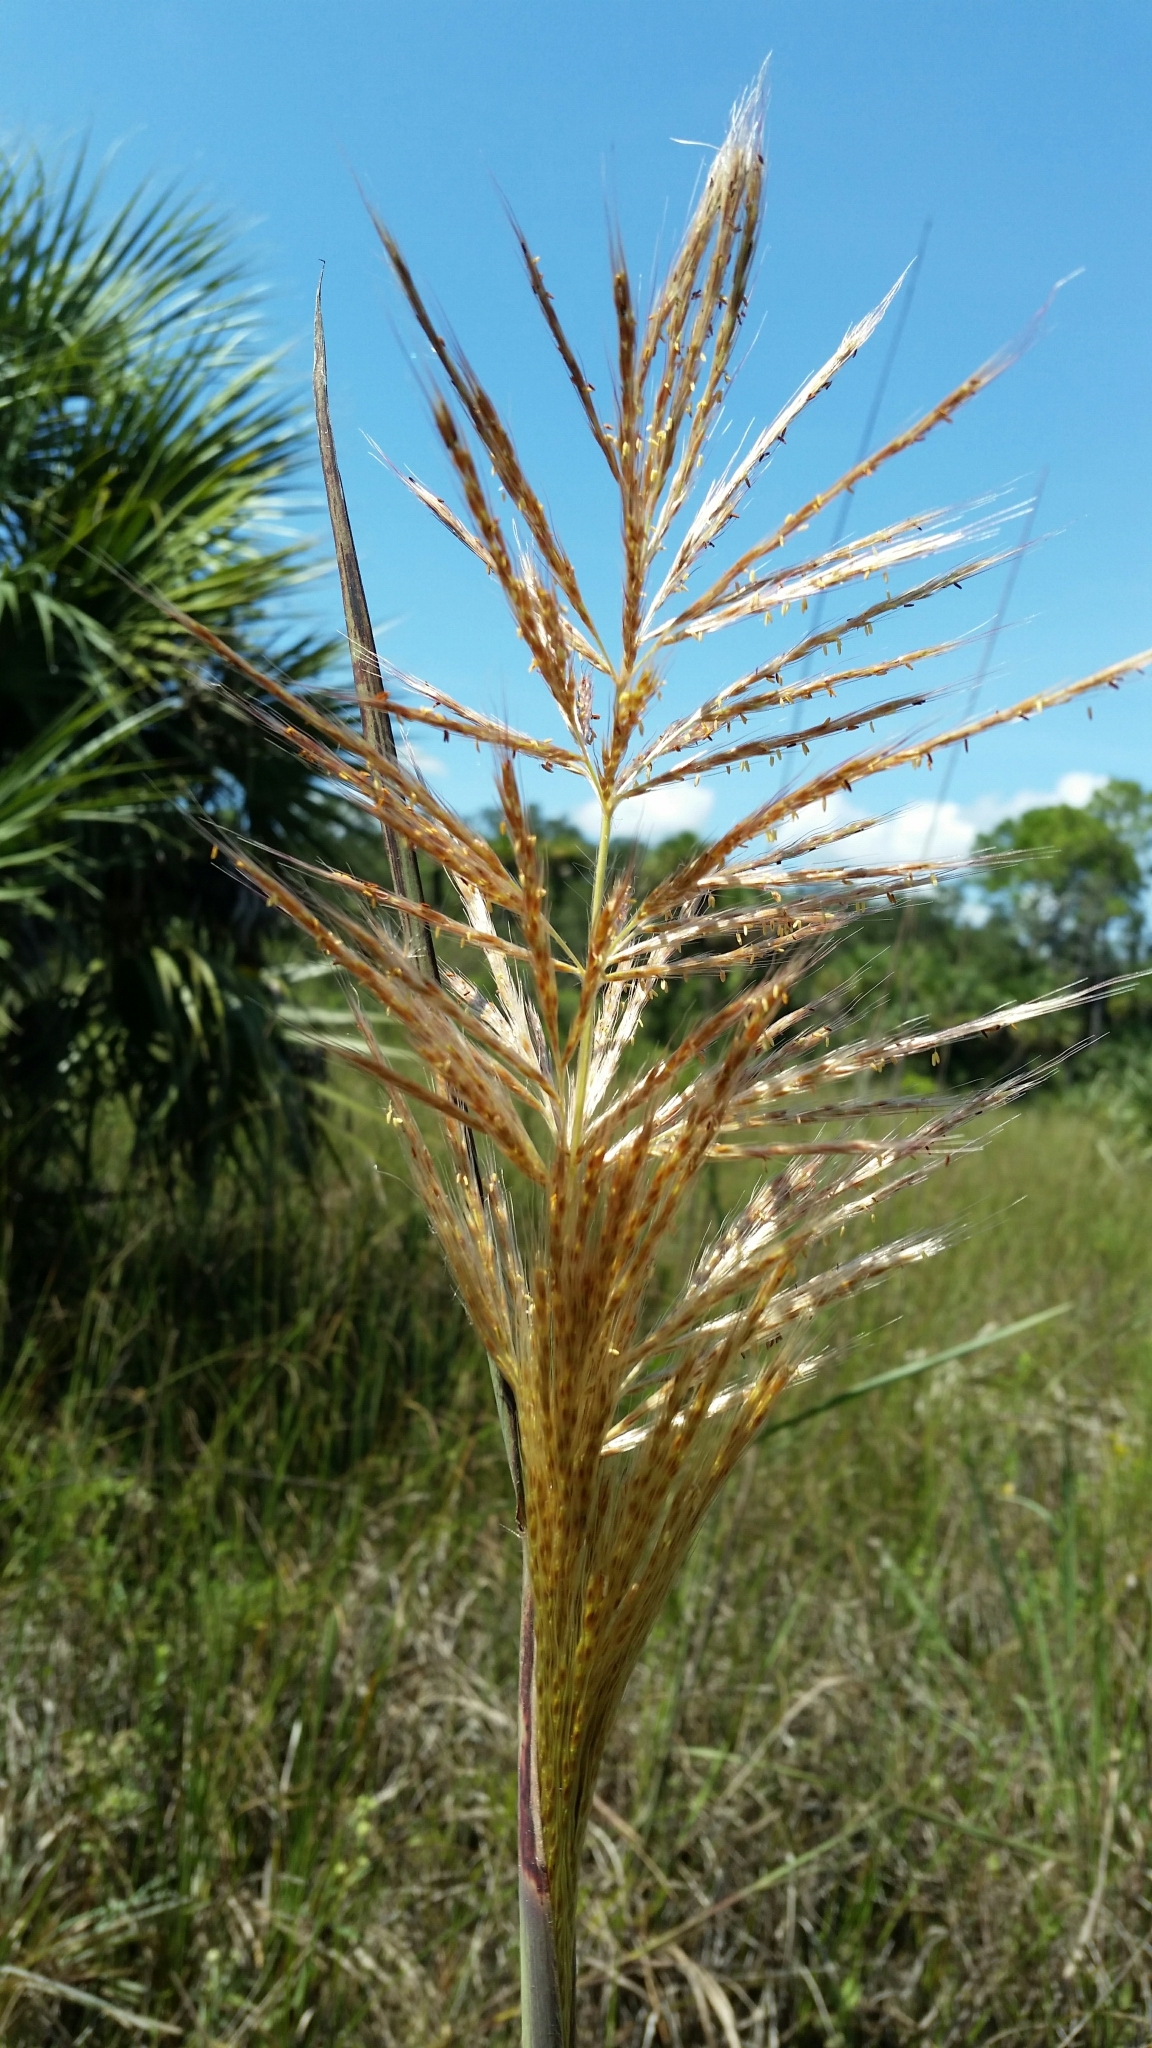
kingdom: Plantae
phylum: Tracheophyta
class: Liliopsida
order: Poales
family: Poaceae
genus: Erianthus
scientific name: Erianthus giganteus
